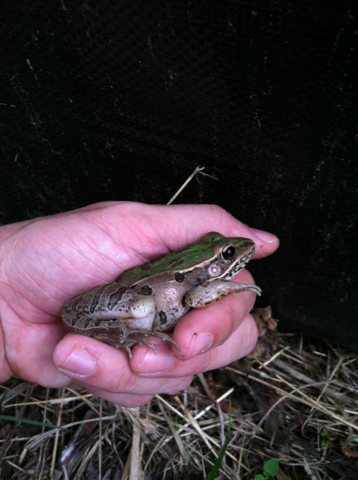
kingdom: Animalia
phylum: Chordata
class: Amphibia
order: Anura
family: Ranidae
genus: Lithobates
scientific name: Lithobates sphenocephalus
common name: Southern leopard frog
